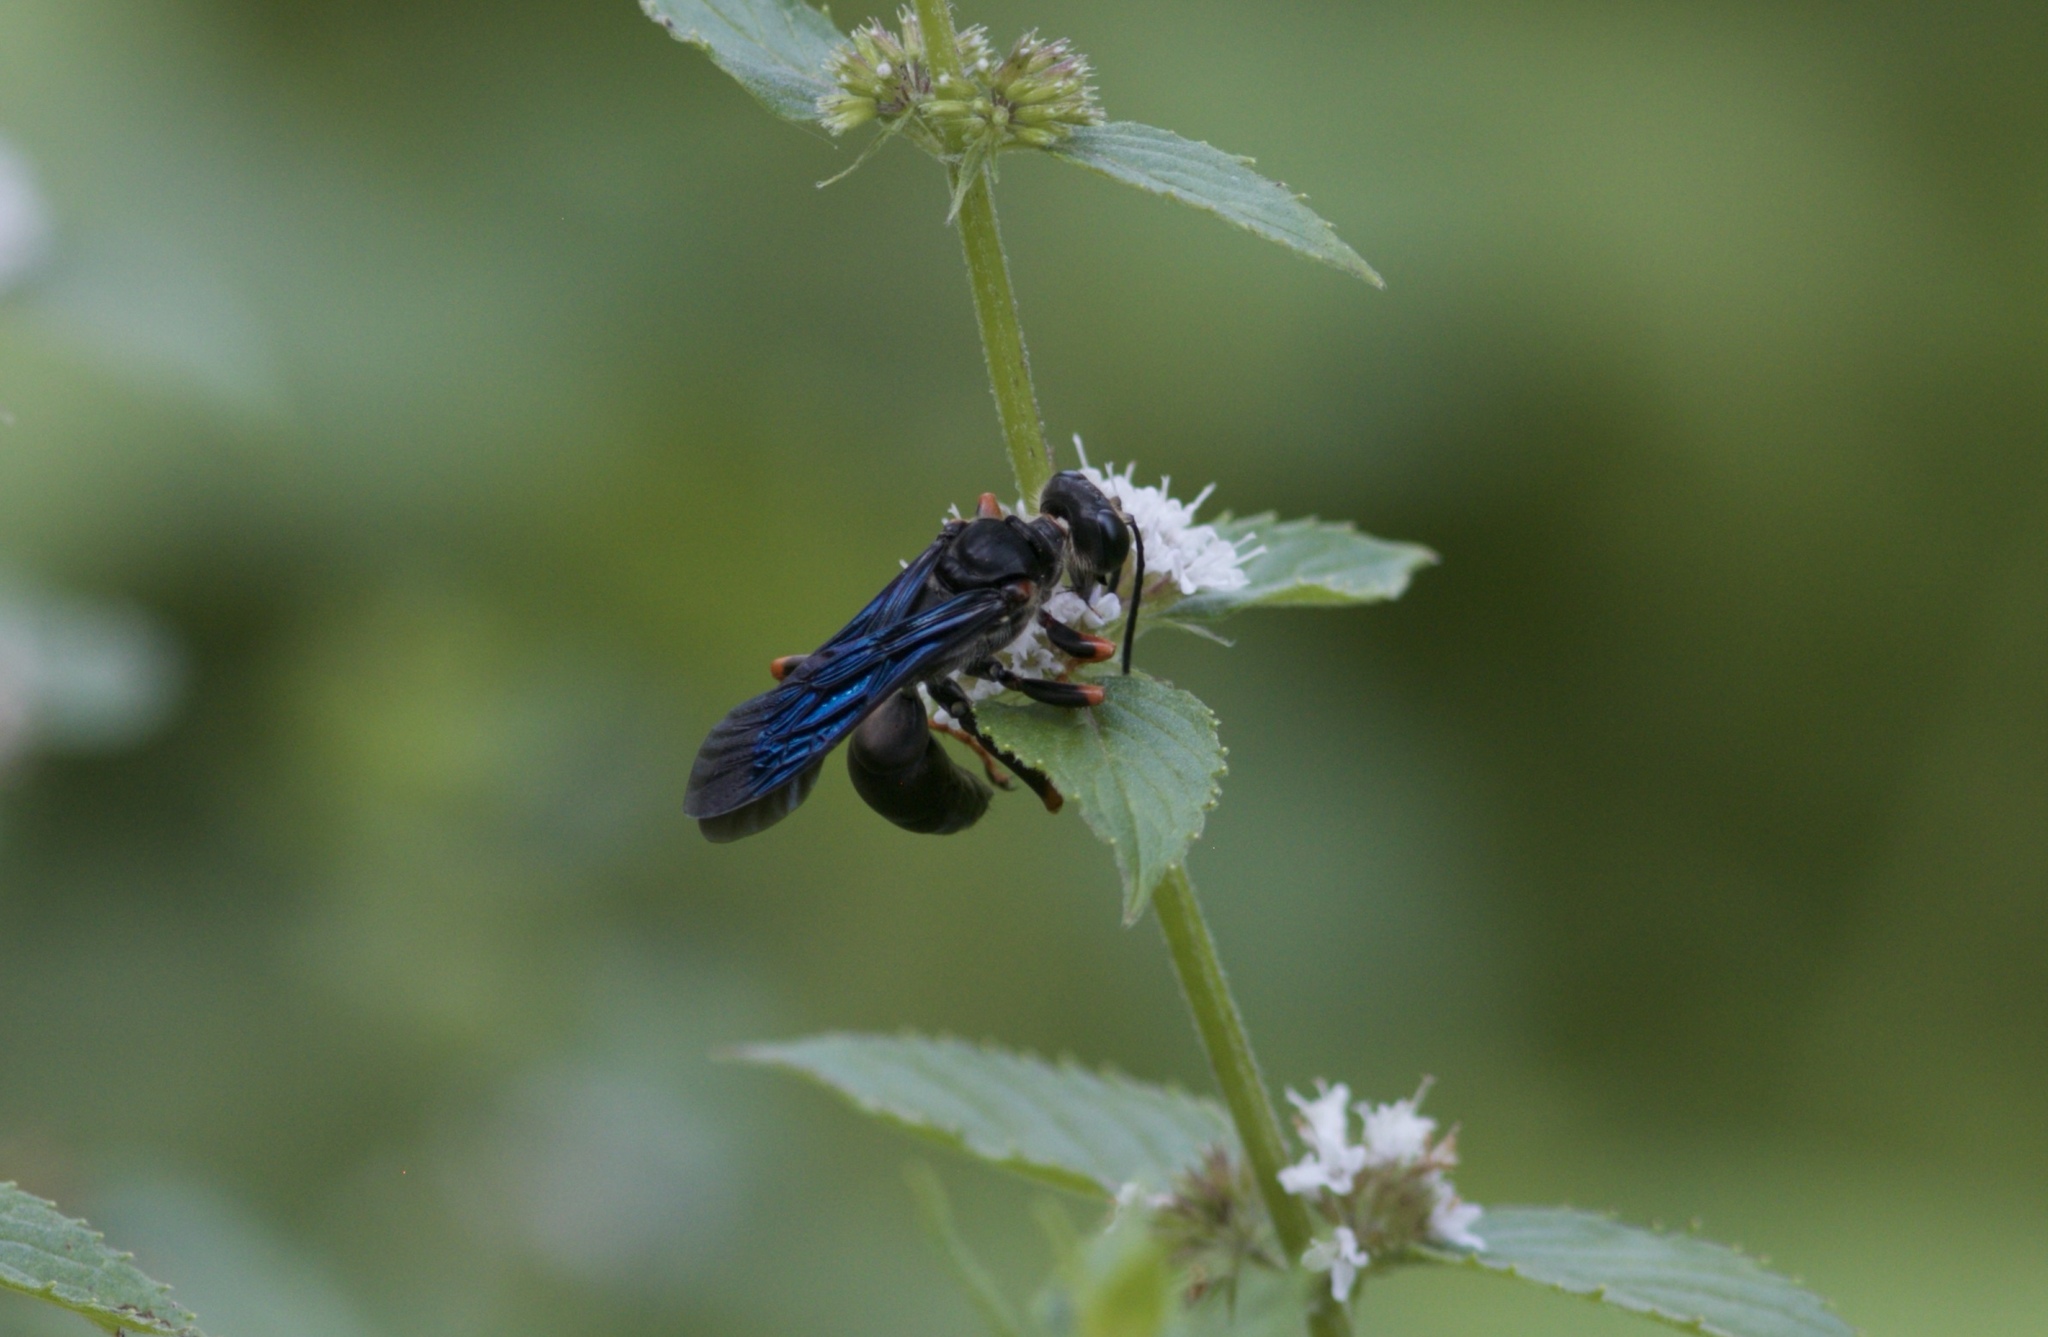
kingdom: Animalia
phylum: Arthropoda
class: Insecta
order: Hymenoptera
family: Sphecidae
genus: Sphex
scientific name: Sphex nudus
